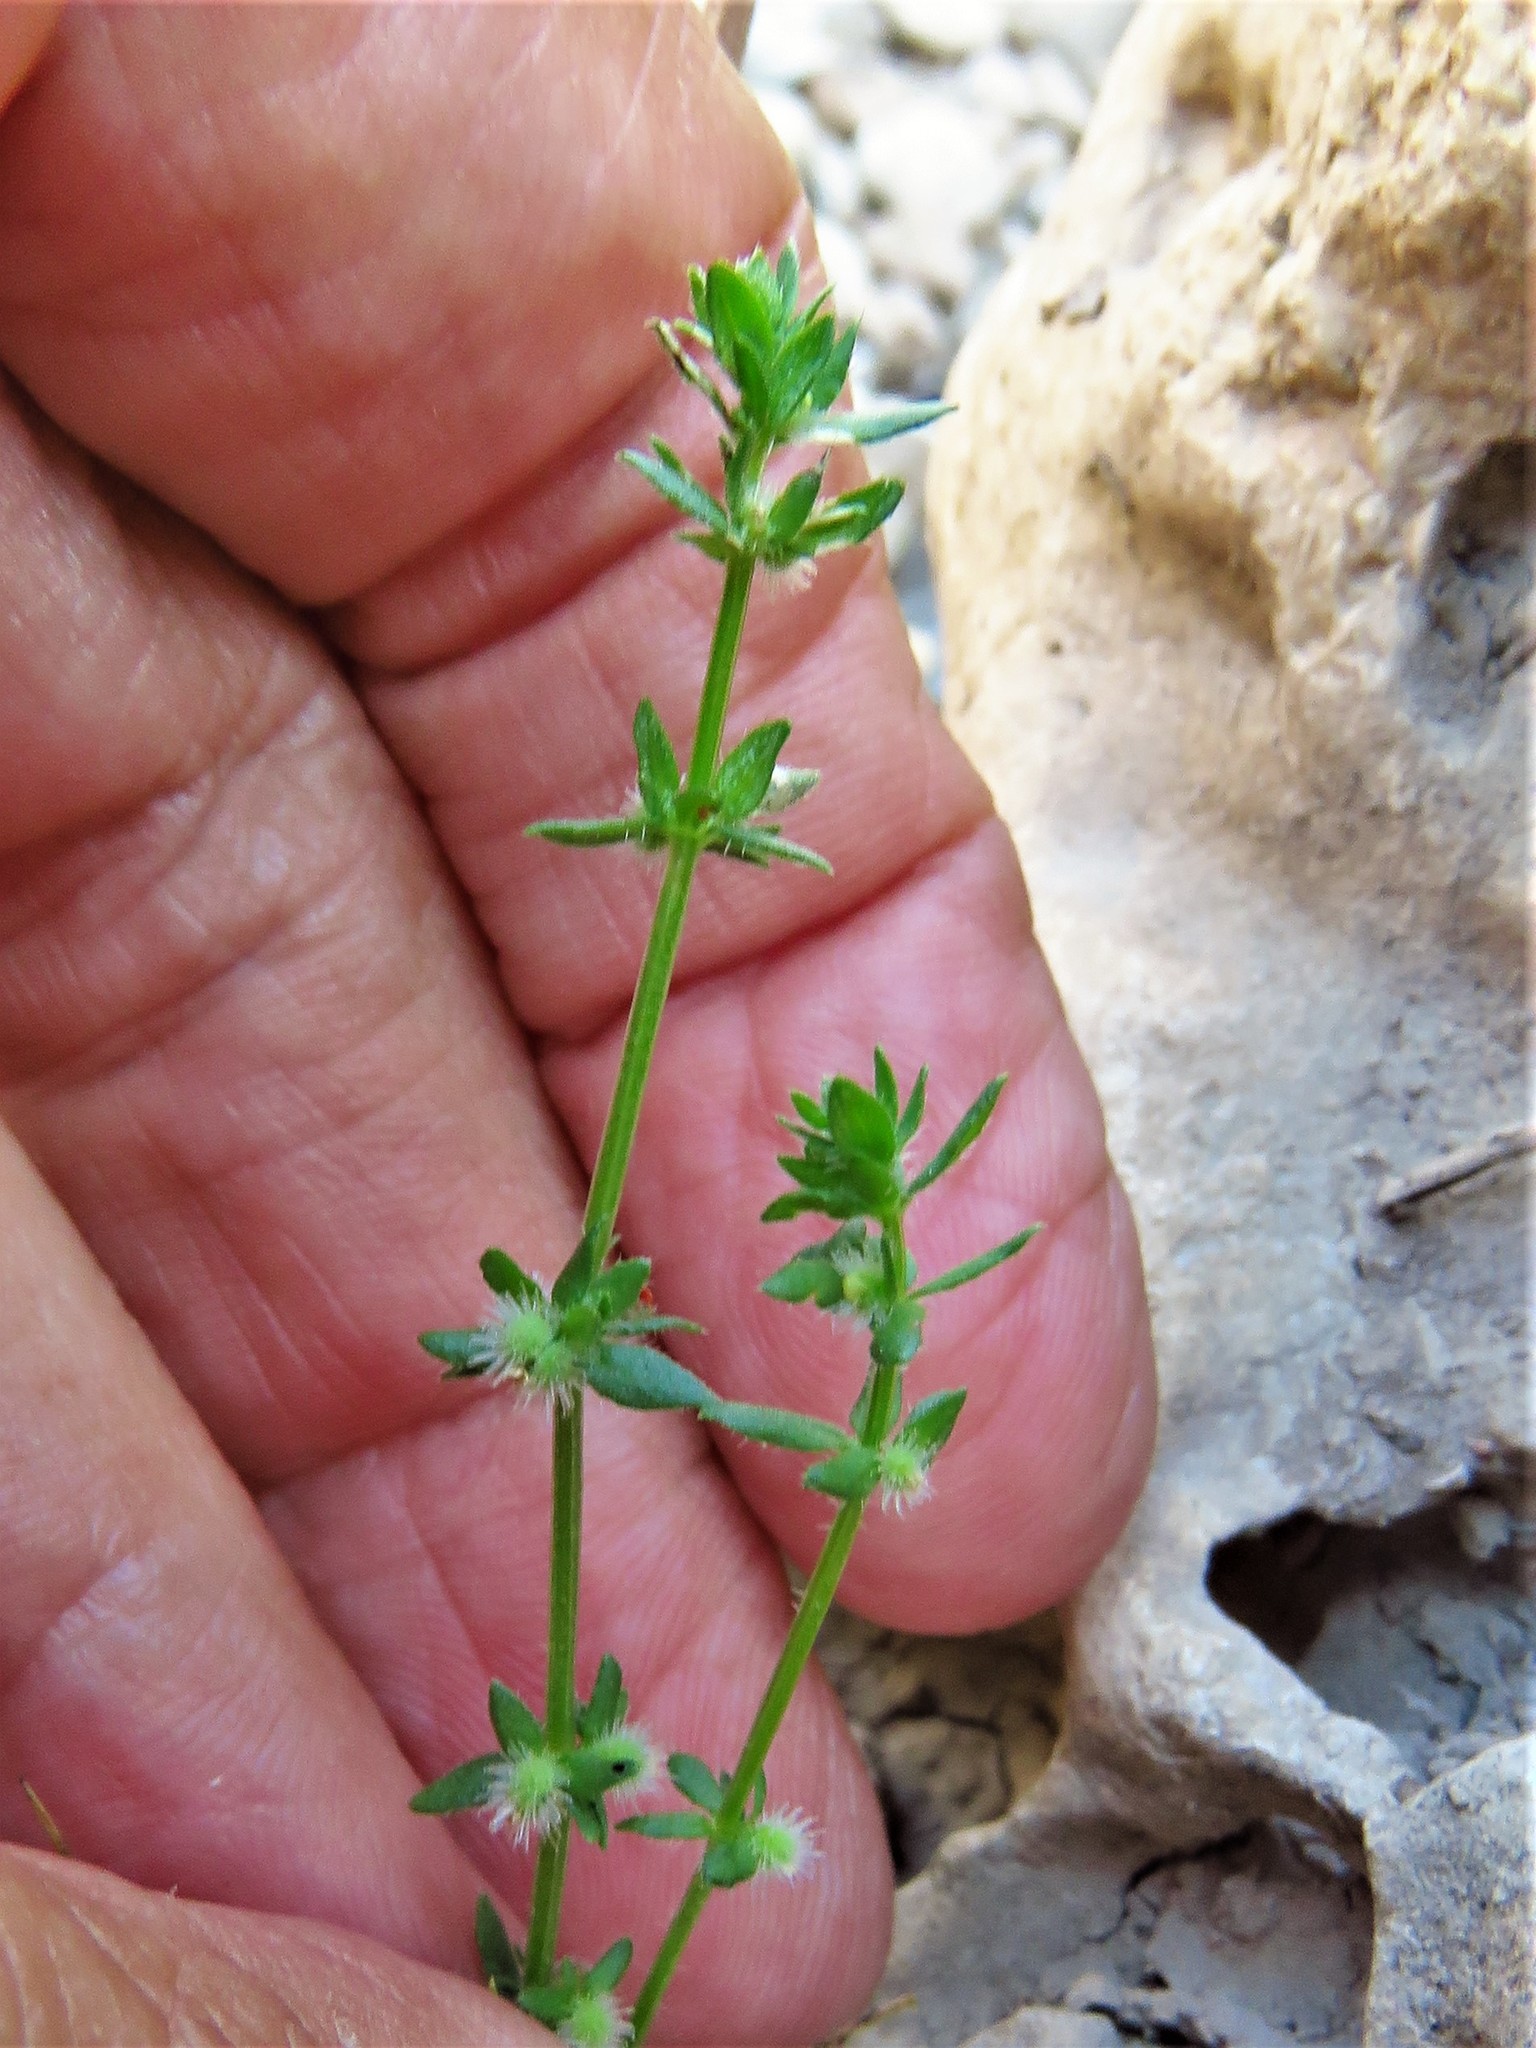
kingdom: Plantae
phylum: Tracheophyta
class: Magnoliopsida
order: Gentianales
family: Rubiaceae
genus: Galium
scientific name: Galium virgatum
